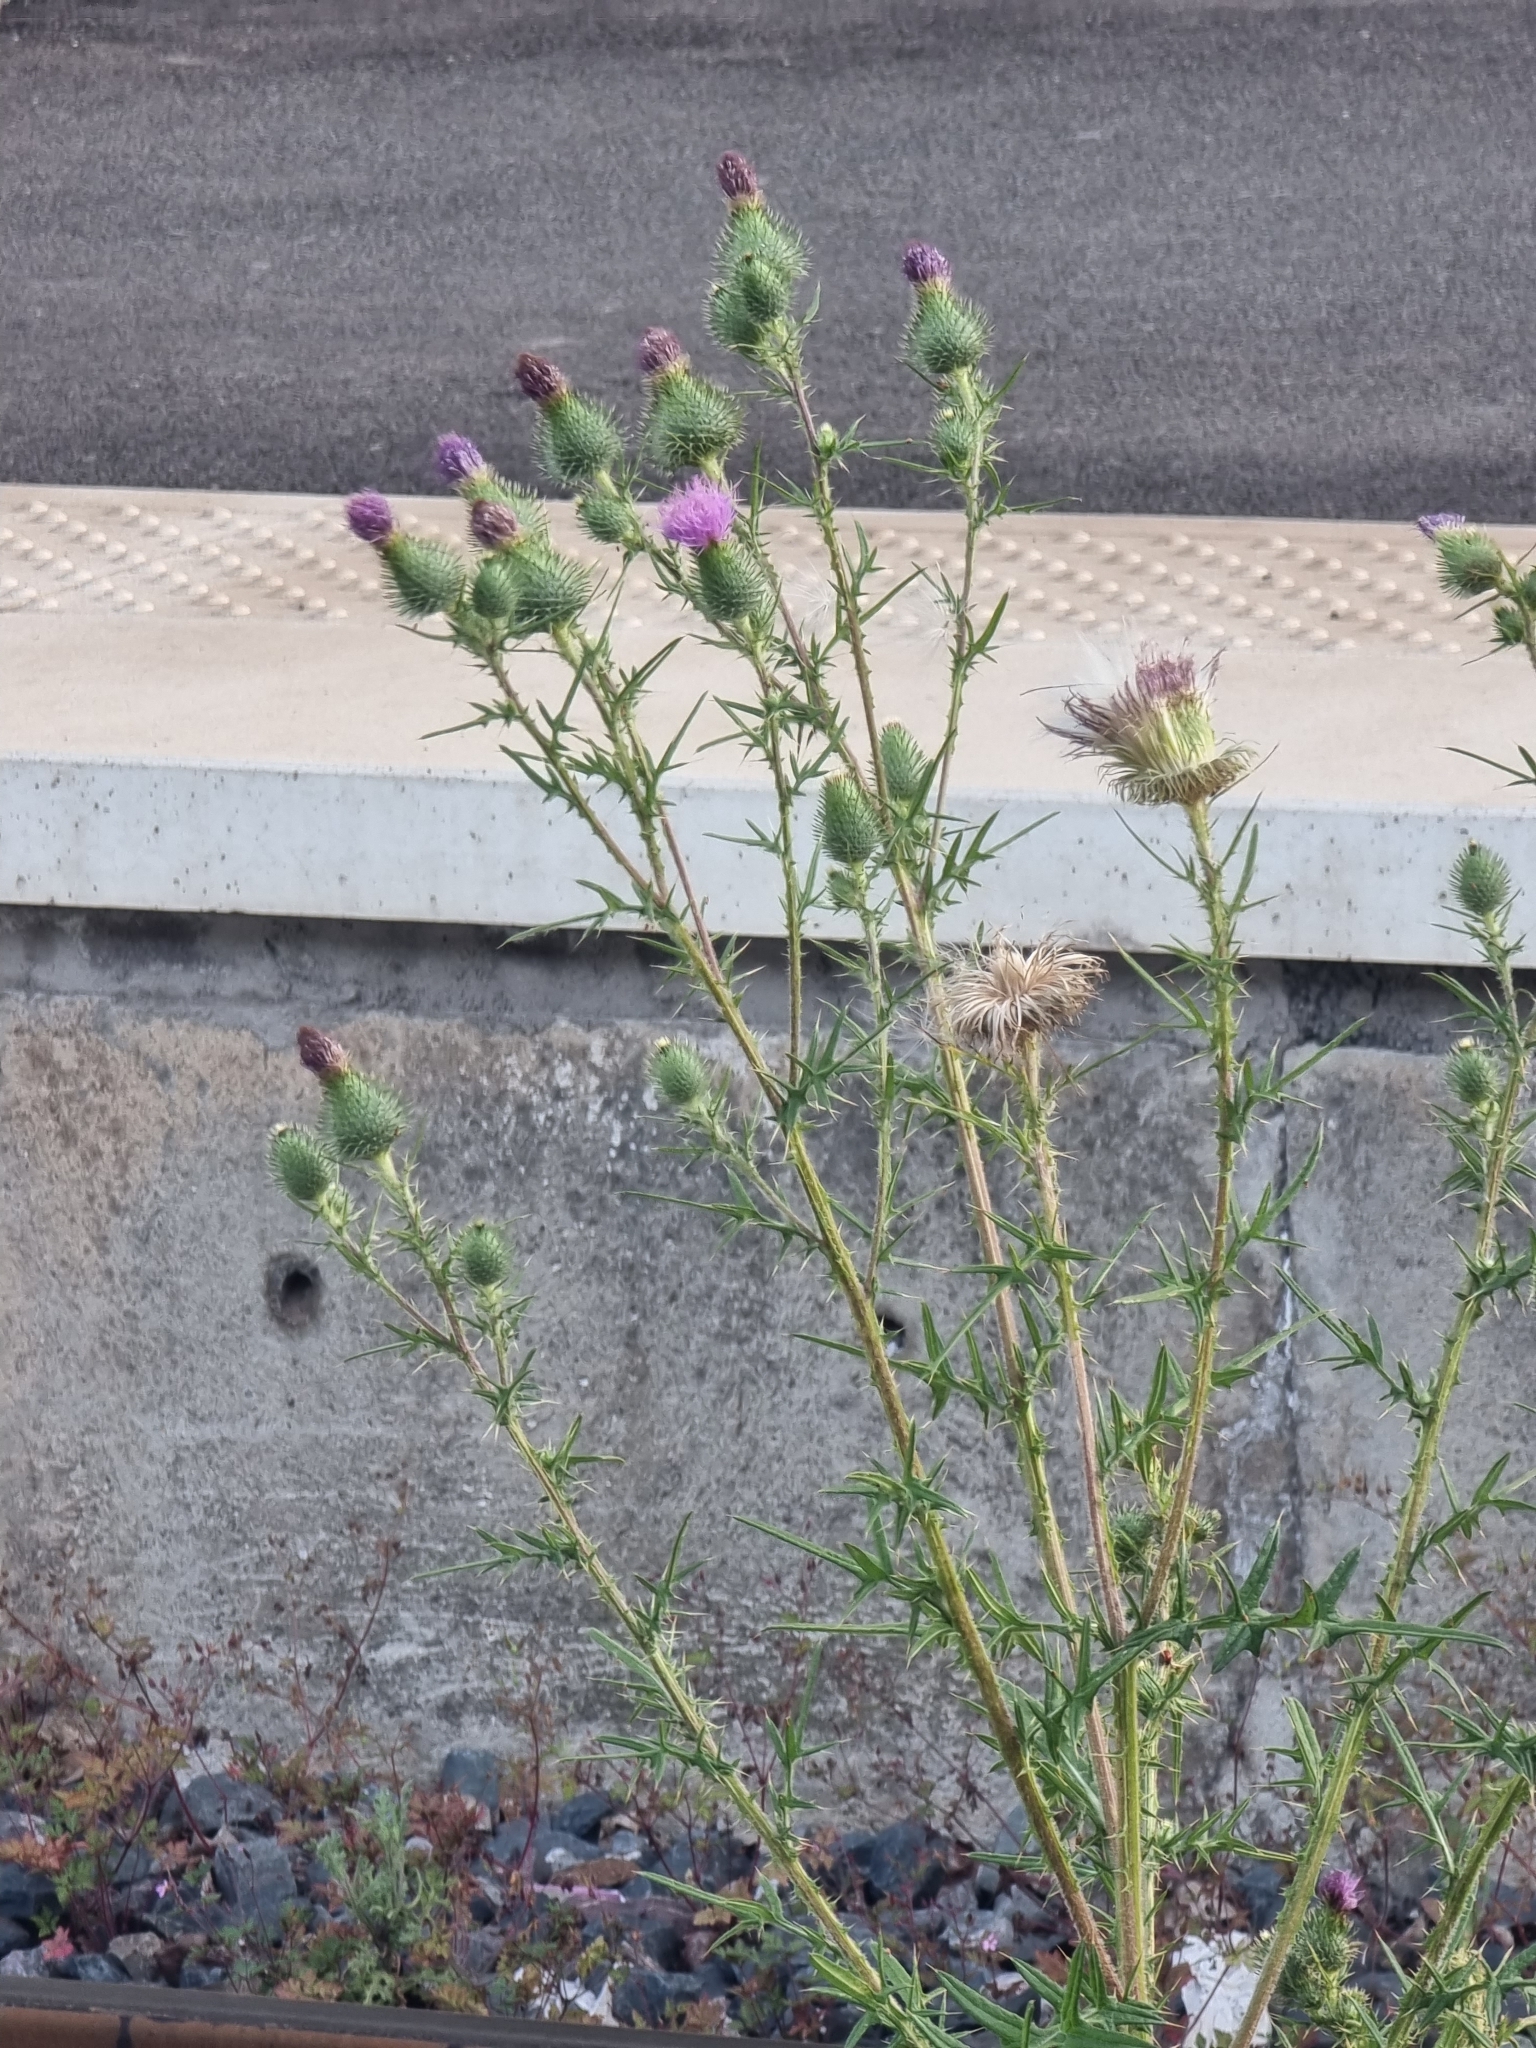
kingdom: Plantae
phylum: Tracheophyta
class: Magnoliopsida
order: Asterales
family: Asteraceae
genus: Cirsium
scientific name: Cirsium vulgare
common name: Bull thistle
